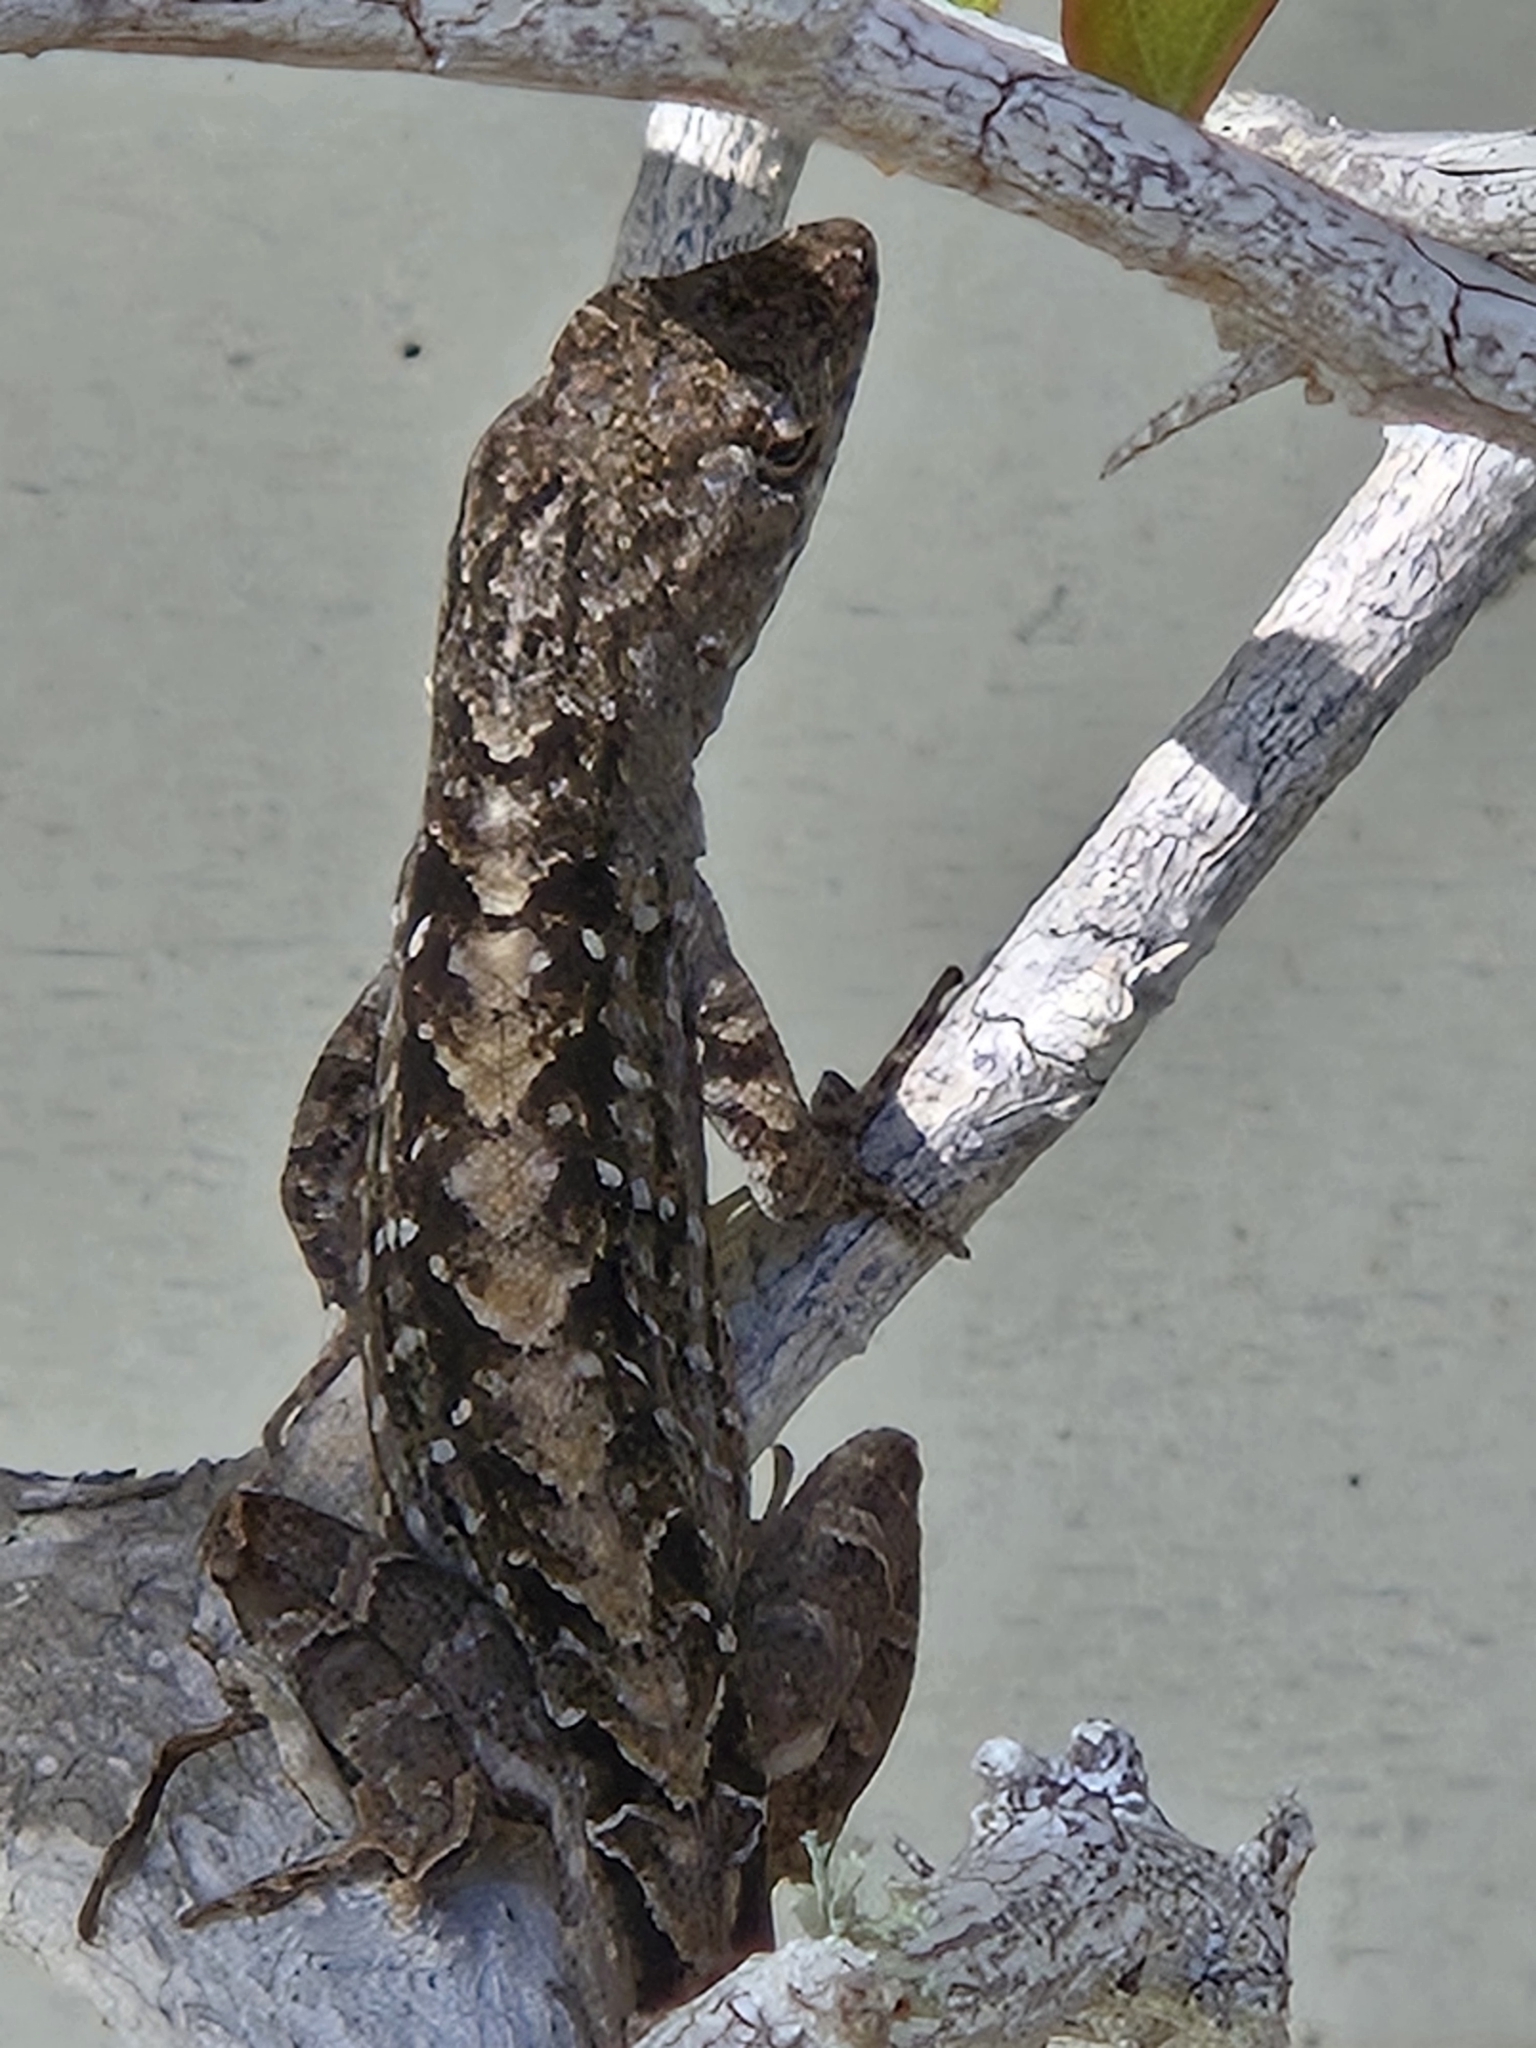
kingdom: Animalia
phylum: Chordata
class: Squamata
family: Dactyloidae
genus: Anolis
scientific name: Anolis sagrei
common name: Brown anole
